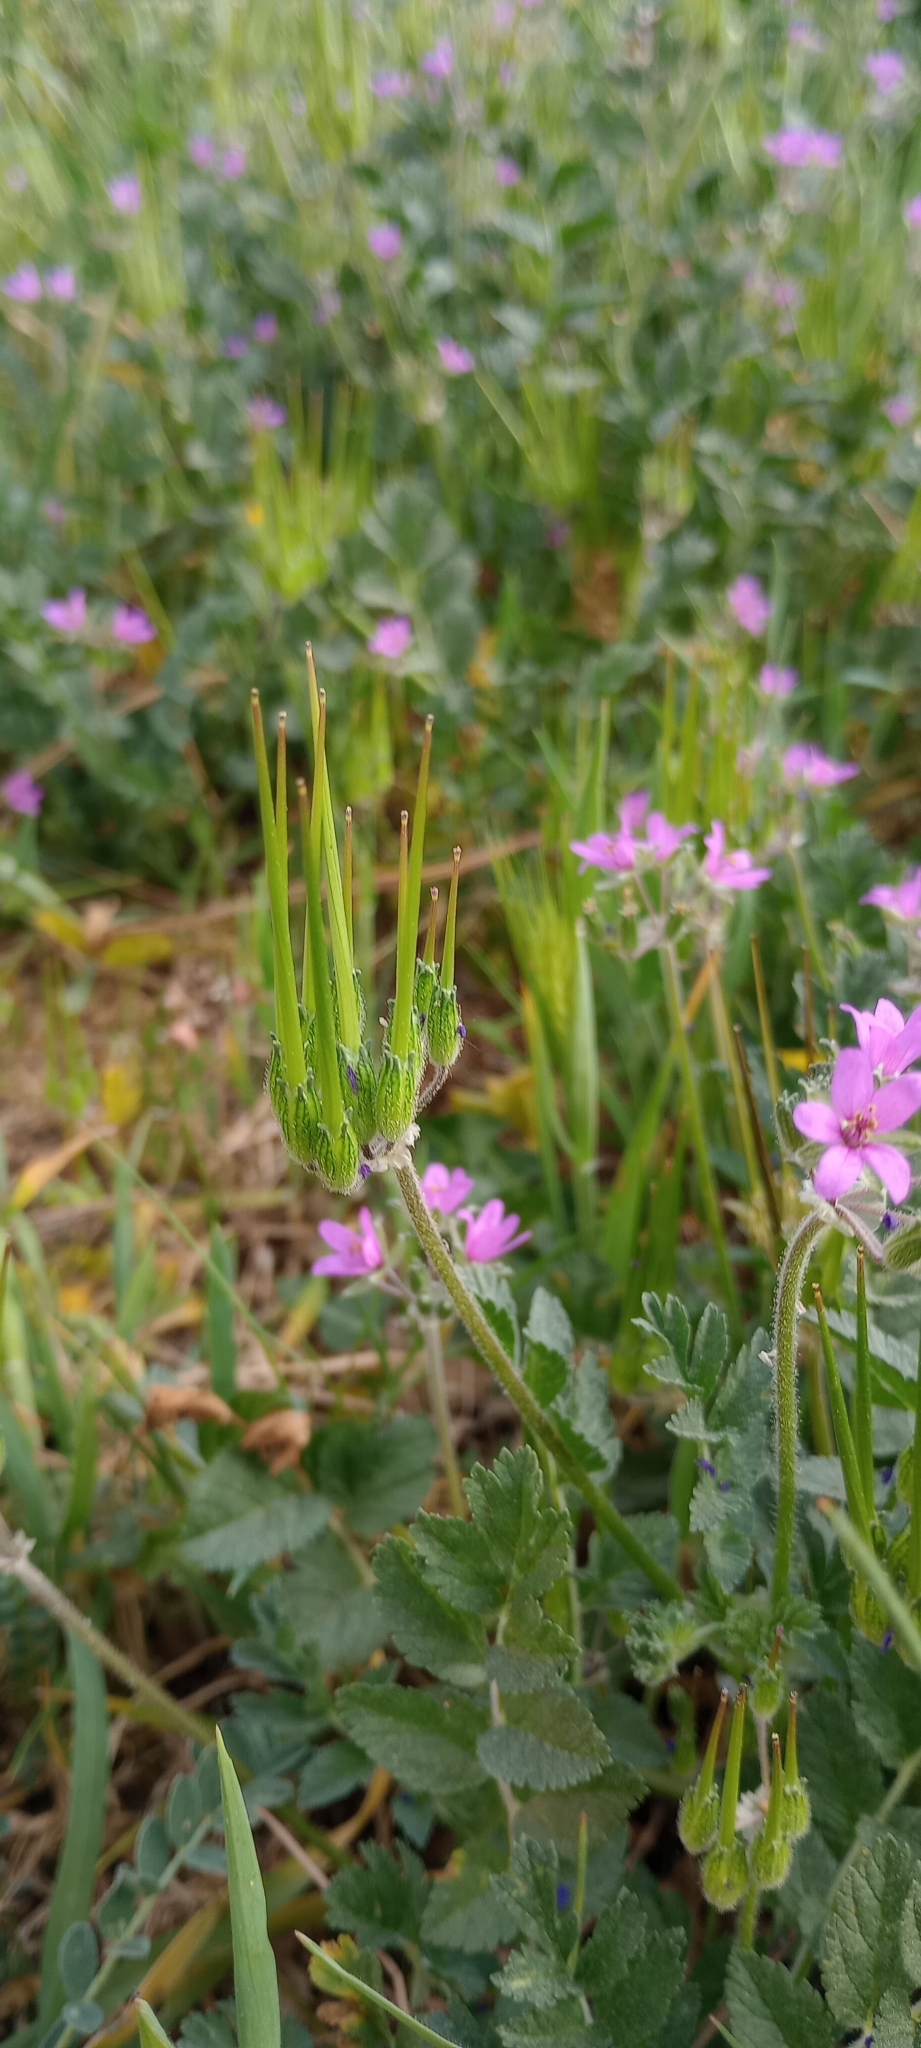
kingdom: Plantae
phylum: Tracheophyta
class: Magnoliopsida
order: Geraniales
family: Geraniaceae
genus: Erodium
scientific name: Erodium moschatum
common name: Musk stork's-bill
